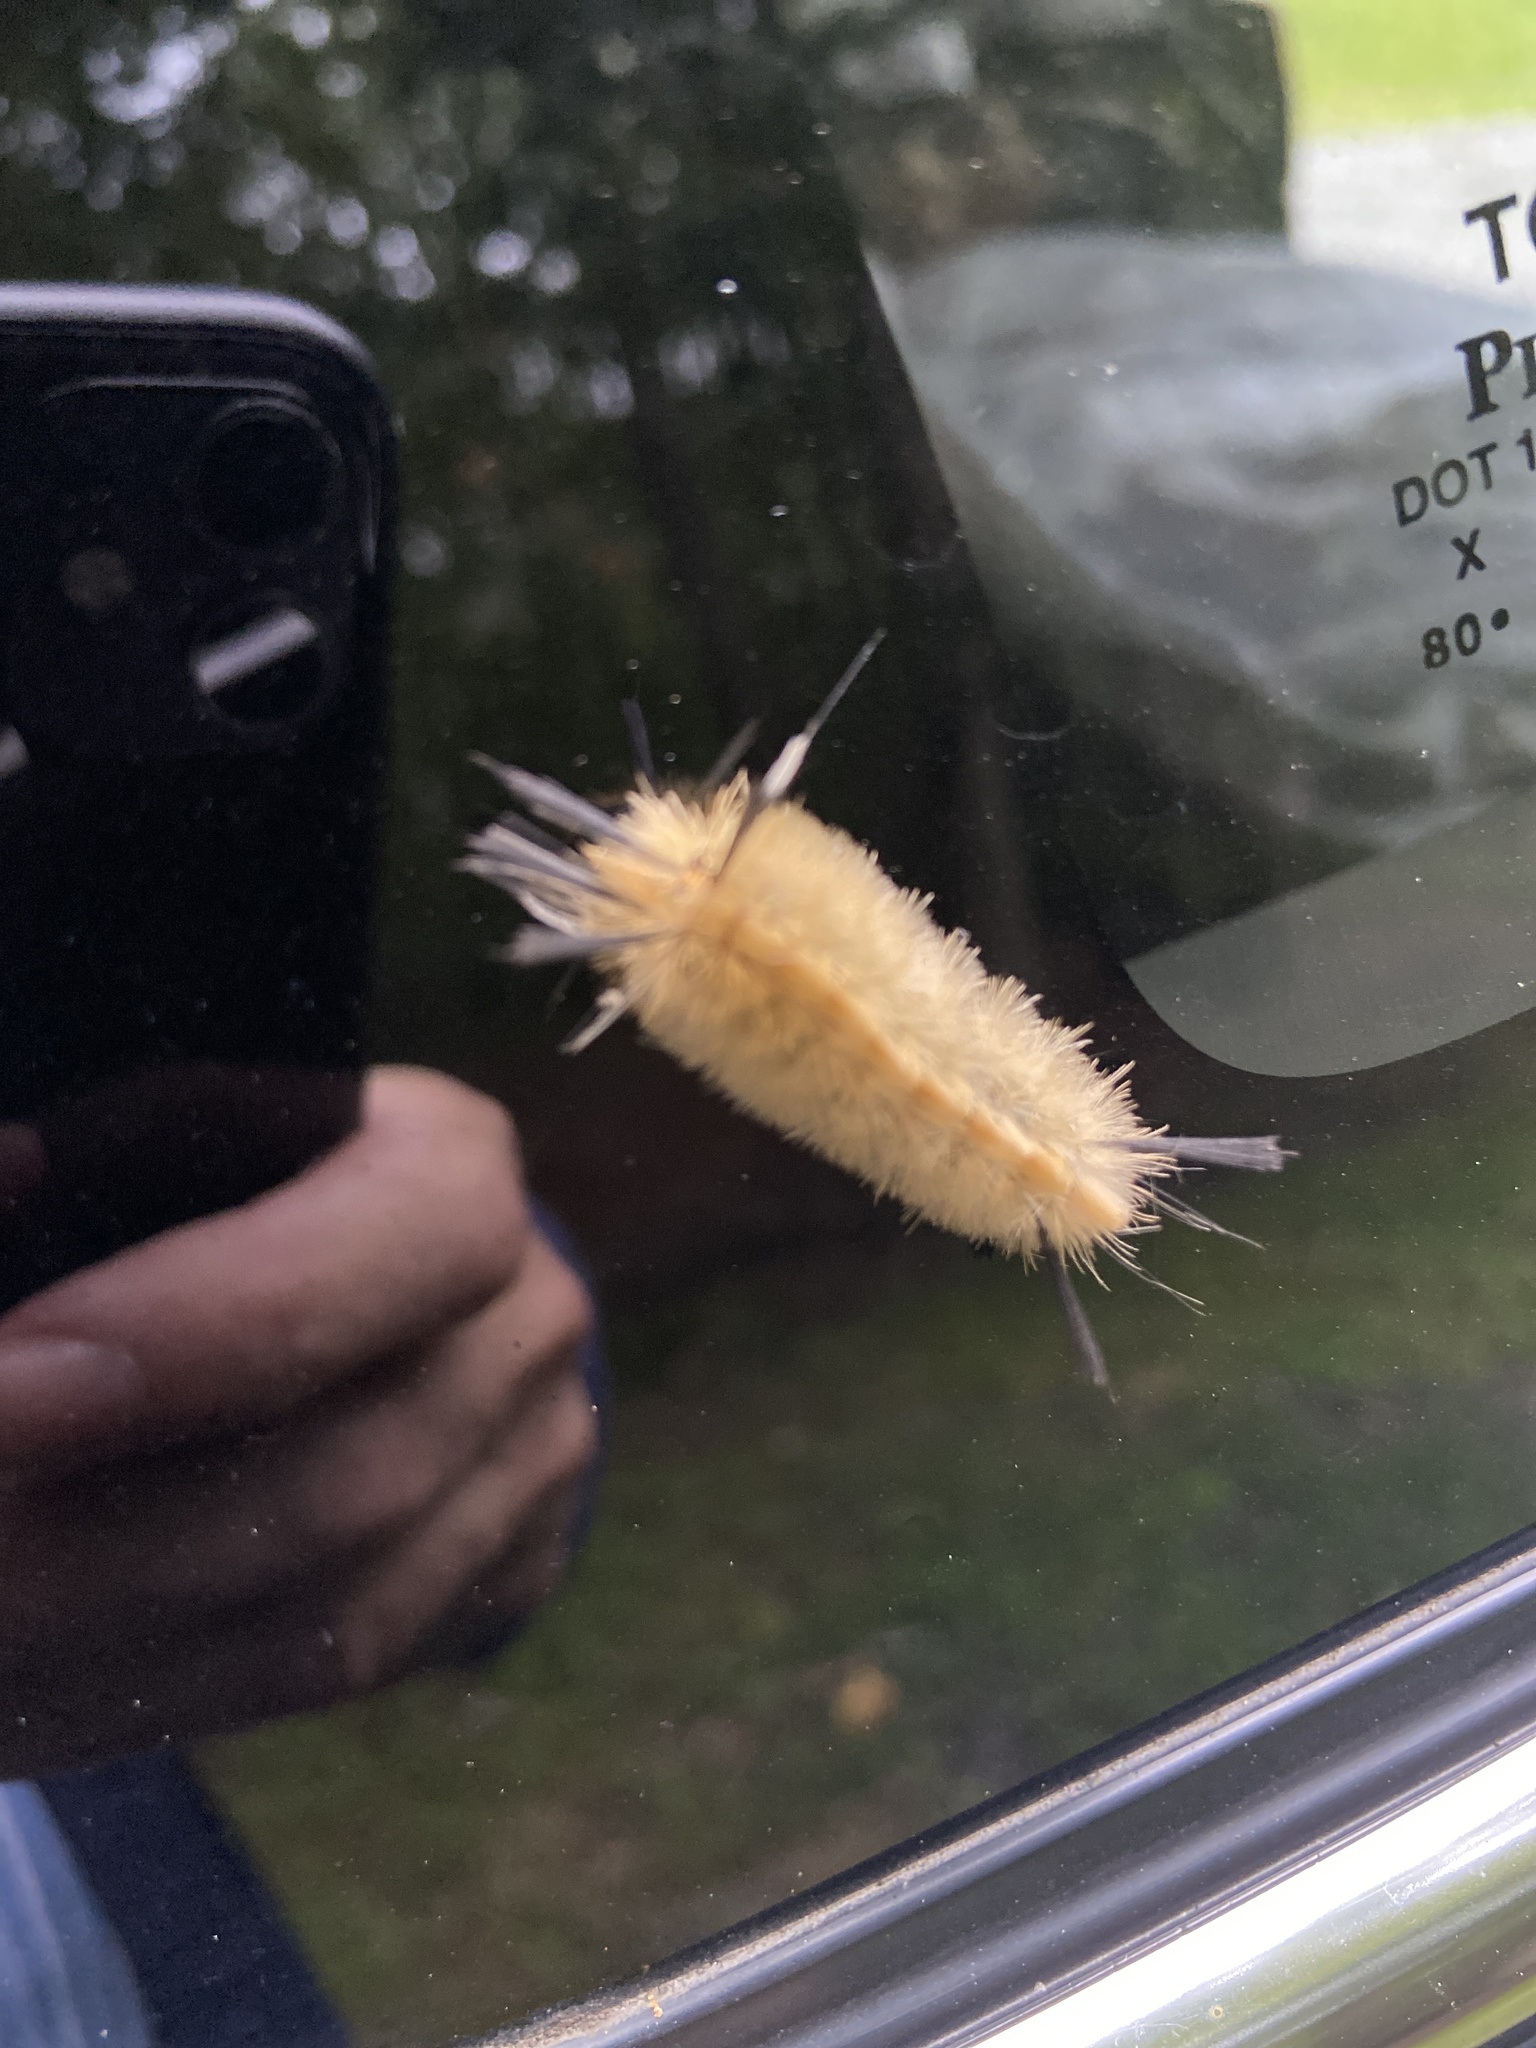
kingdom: Animalia
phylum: Arthropoda
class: Insecta
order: Lepidoptera
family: Erebidae
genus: Halysidota
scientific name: Halysidota tessellaris
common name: Banded tussock moth
